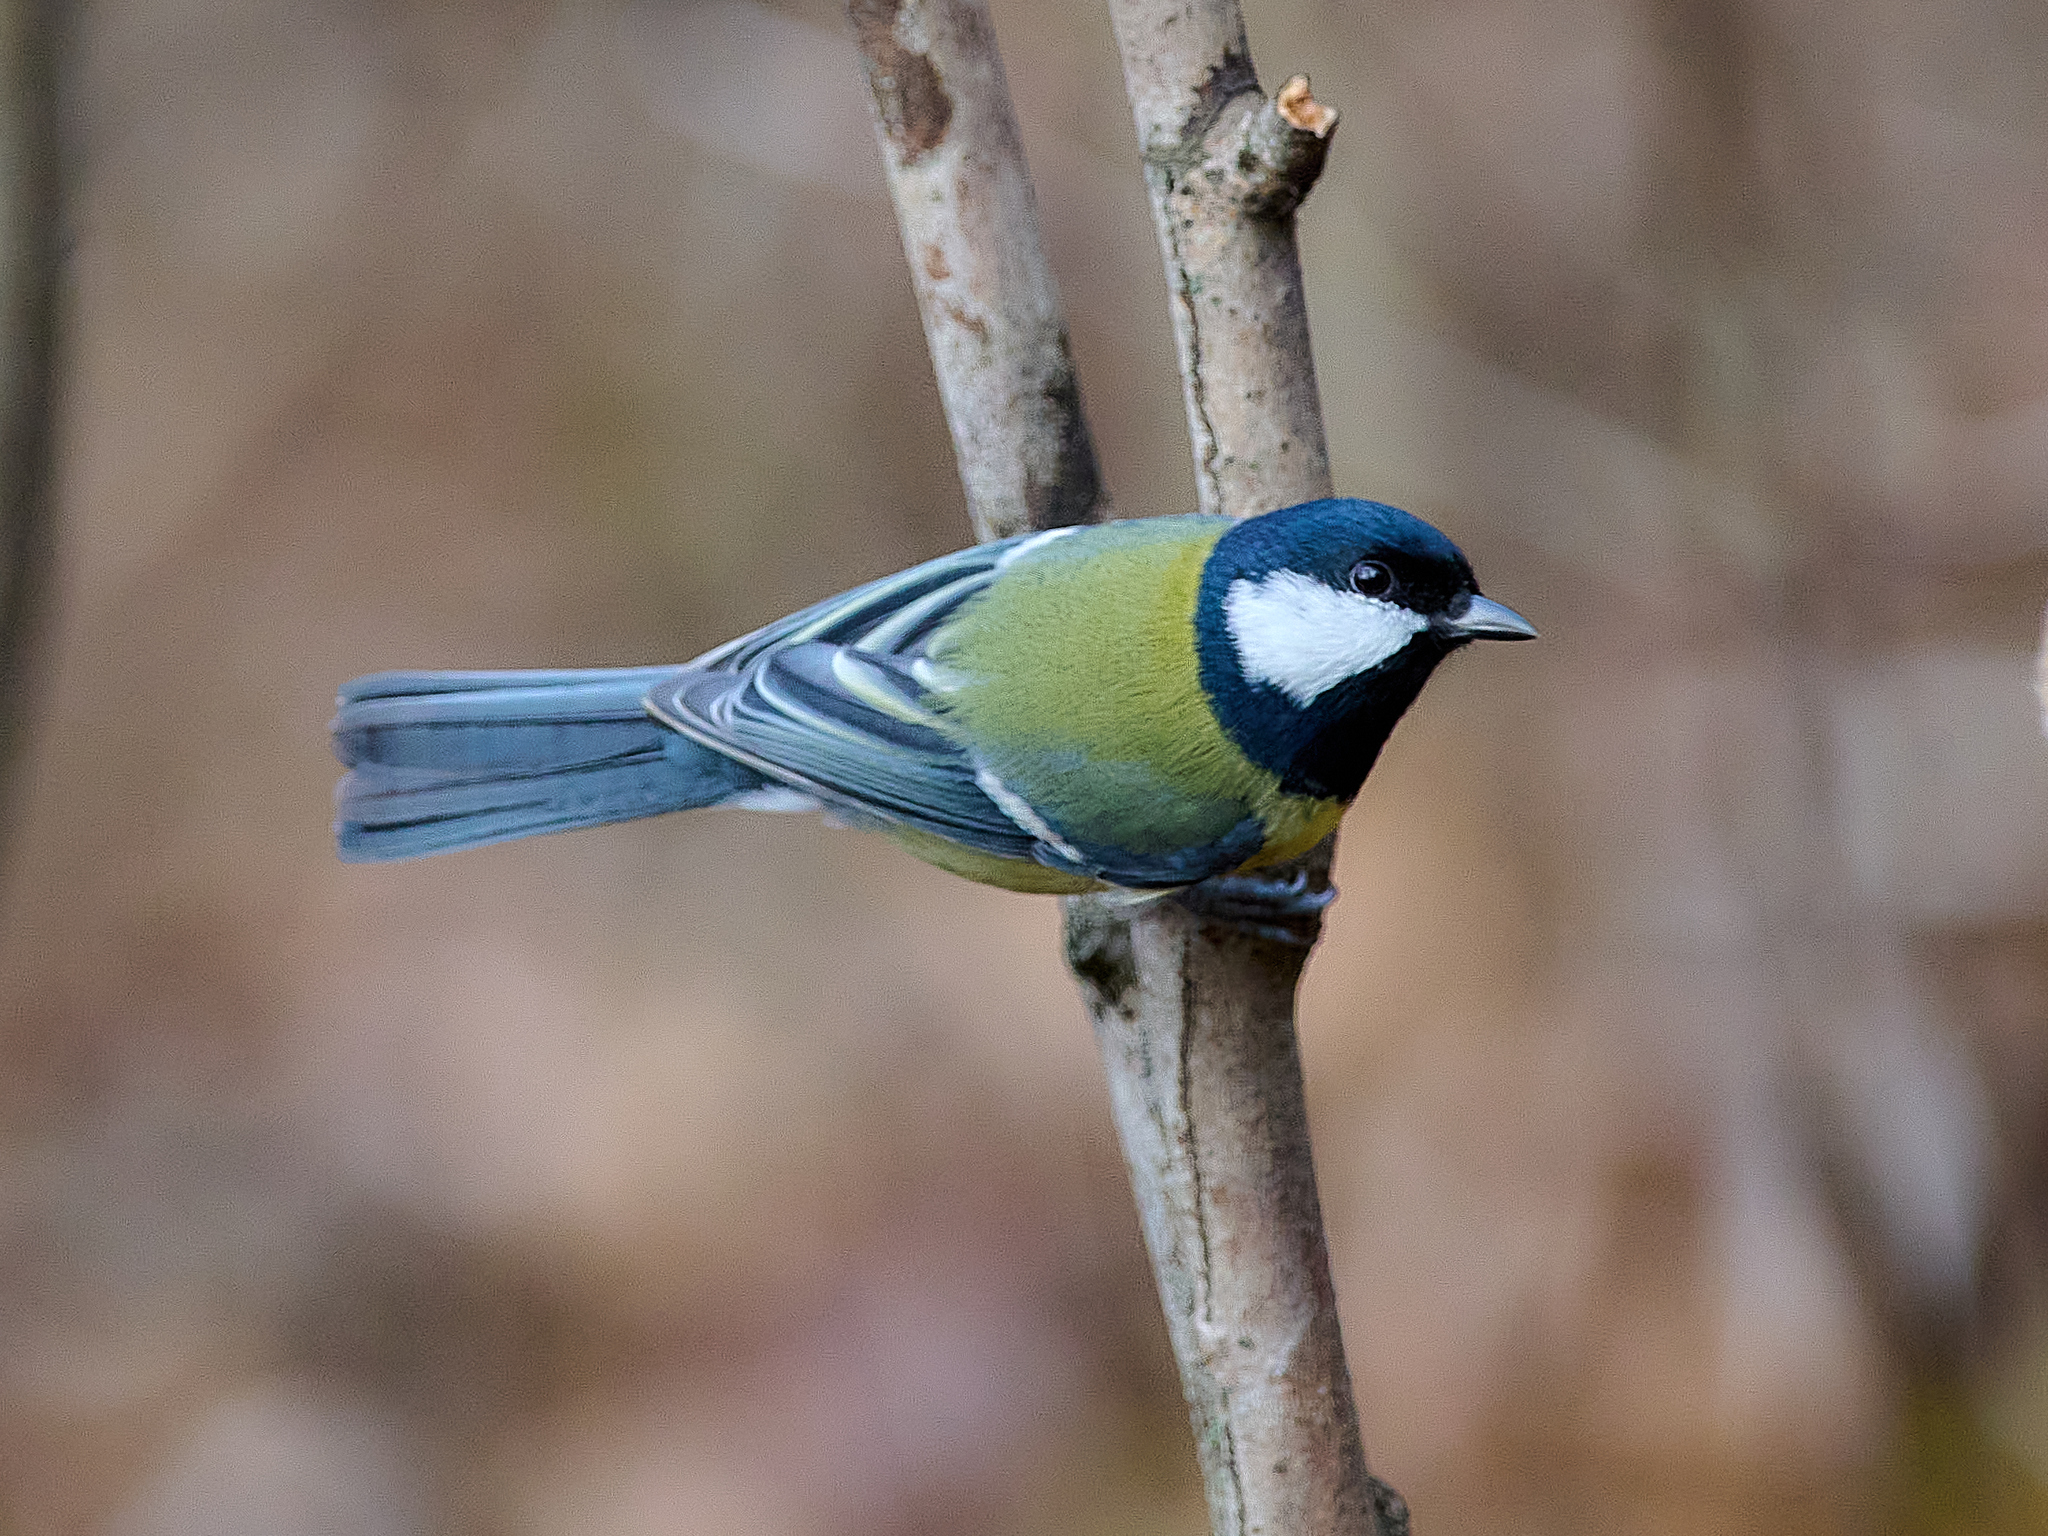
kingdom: Animalia
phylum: Chordata
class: Aves
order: Passeriformes
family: Paridae
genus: Parus
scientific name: Parus major
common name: Great tit
